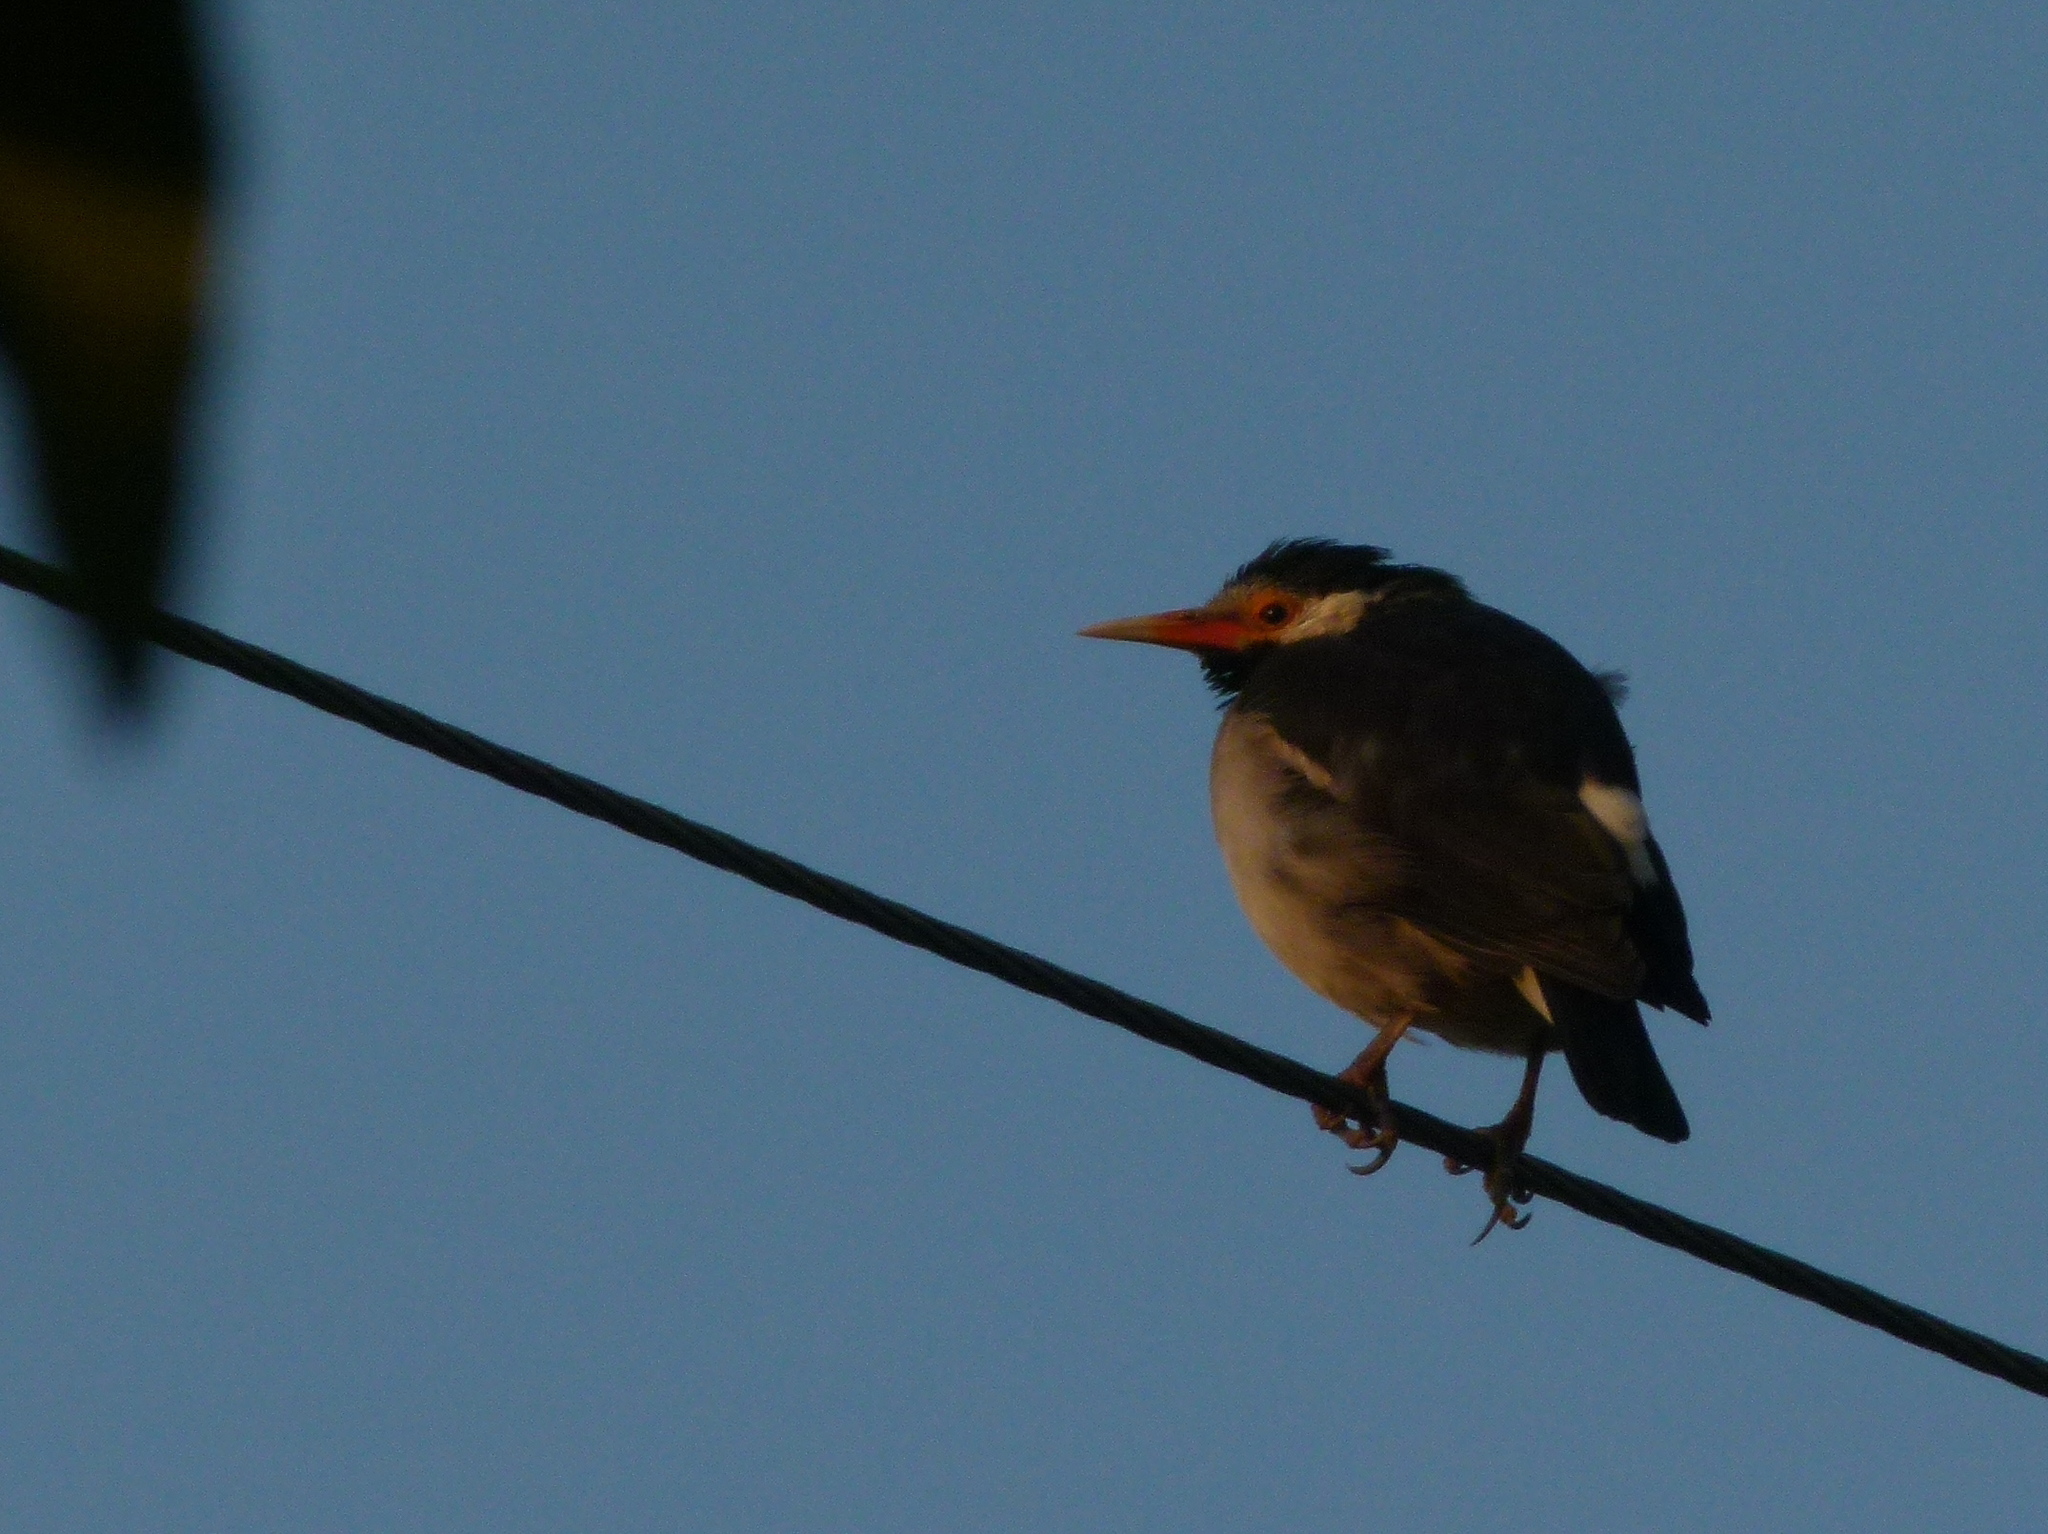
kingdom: Animalia
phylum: Chordata
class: Aves
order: Passeriformes
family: Sturnidae
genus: Gracupica
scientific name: Gracupica contra
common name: Pied myna
